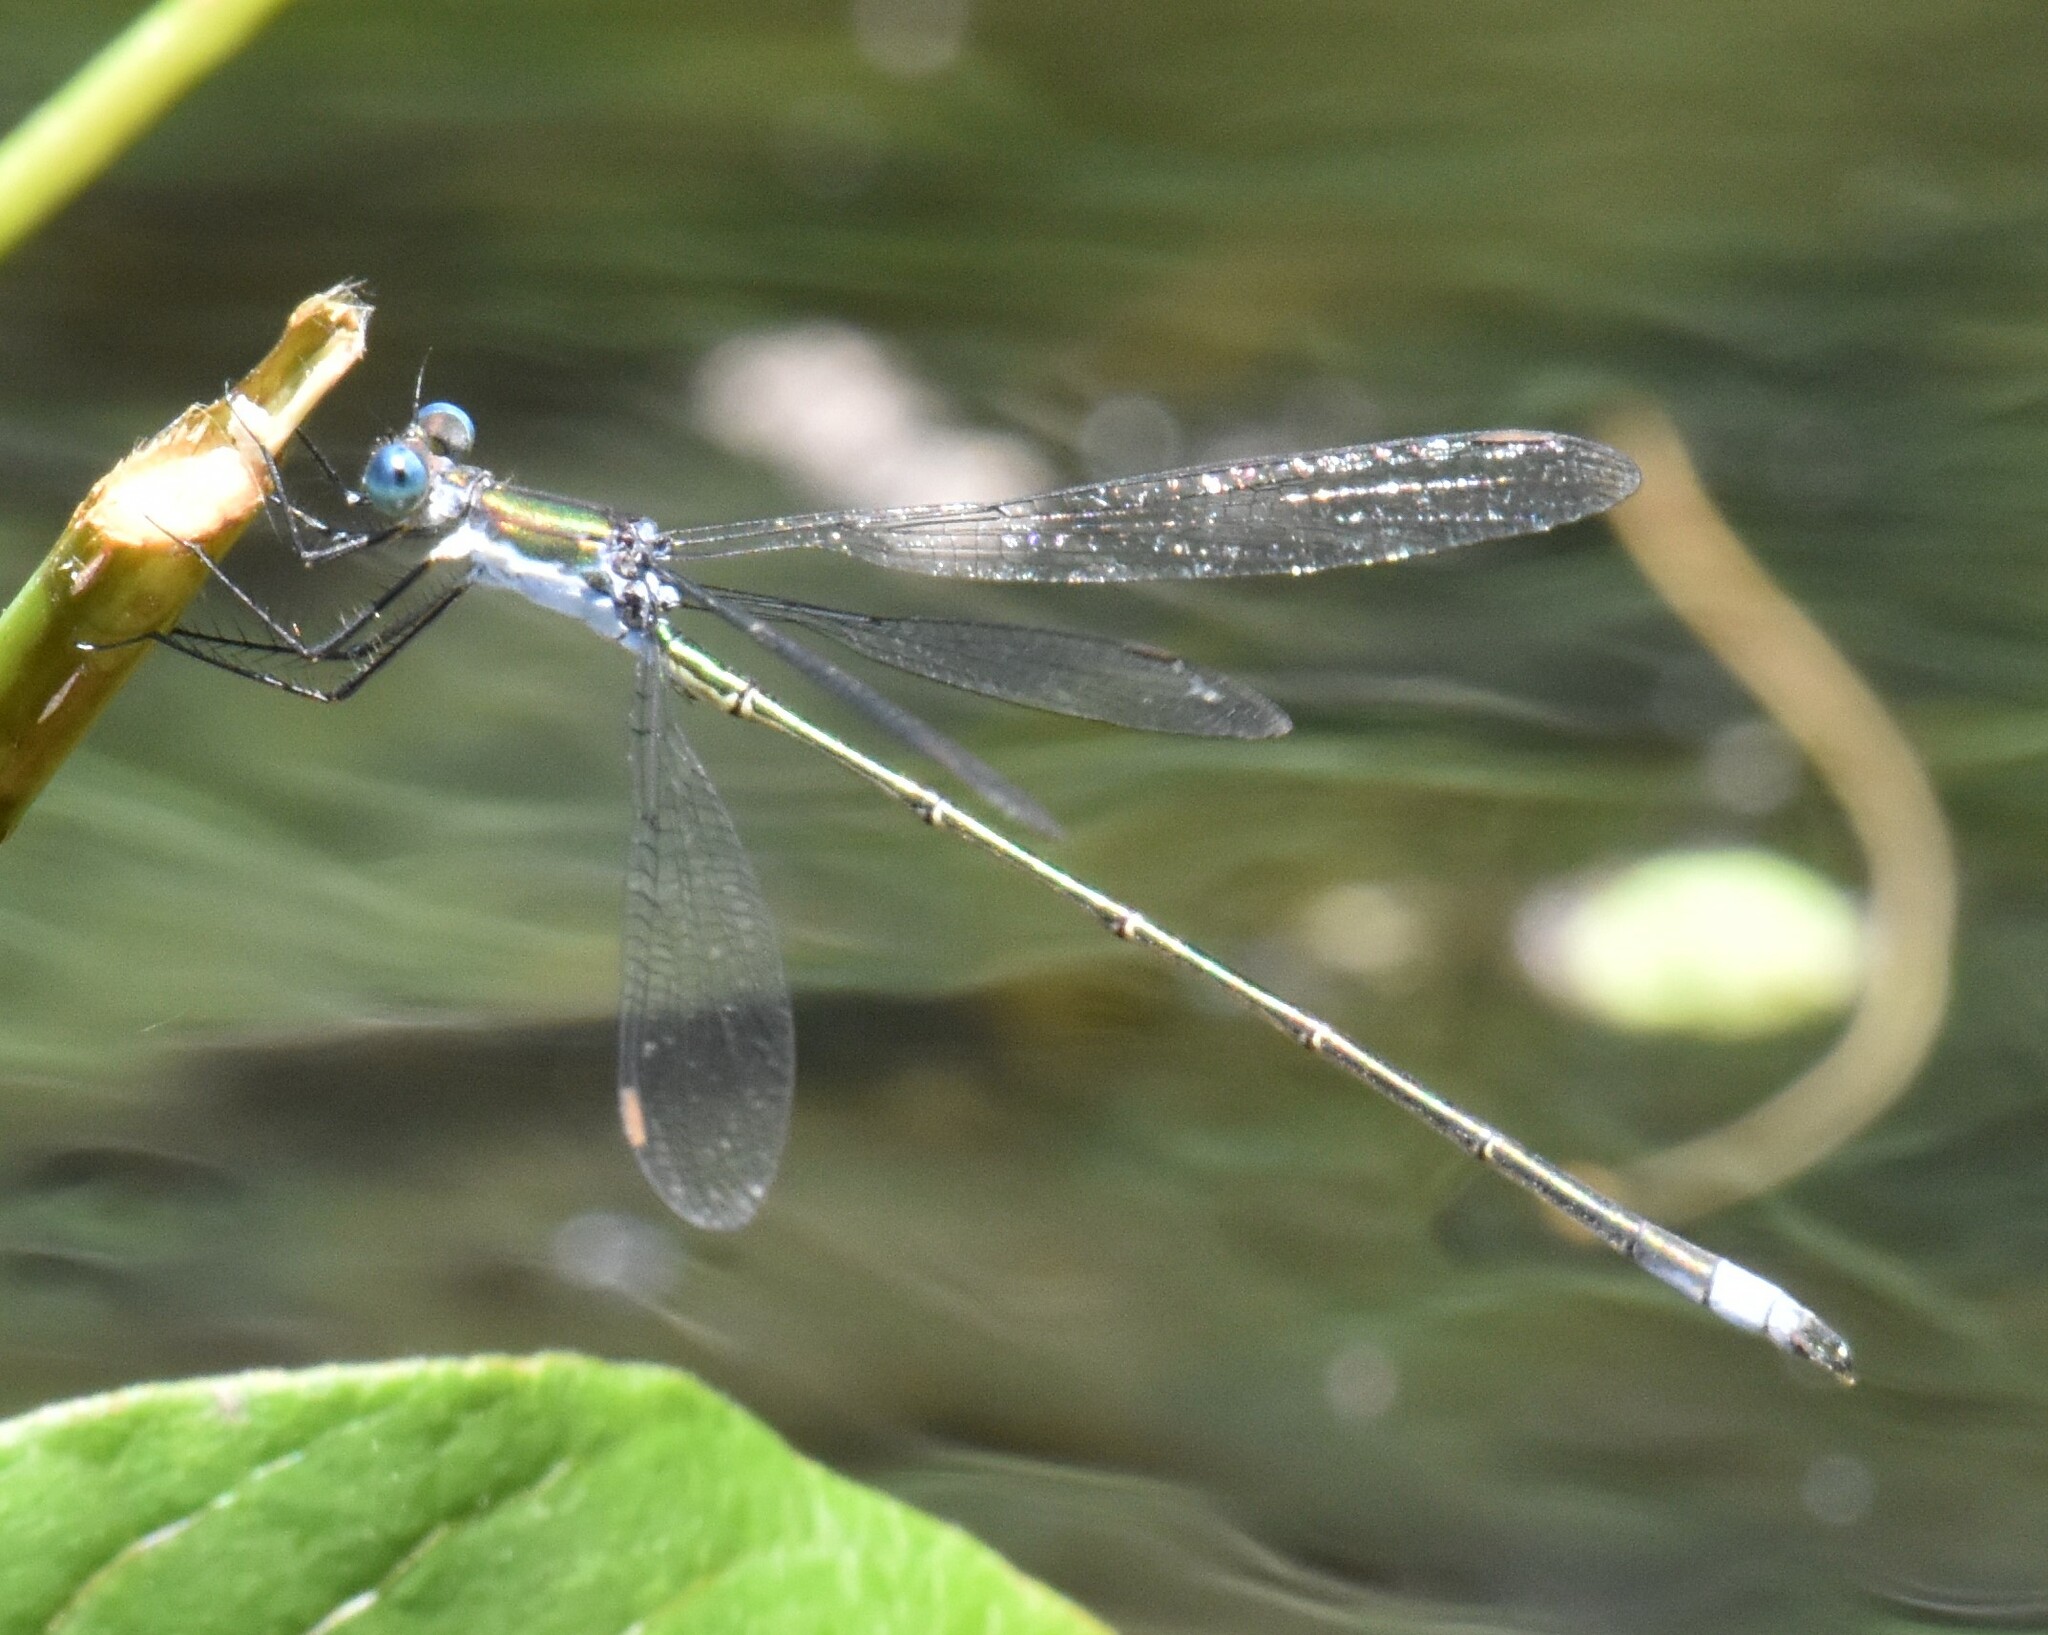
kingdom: Animalia
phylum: Arthropoda
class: Insecta
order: Odonata
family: Lestidae
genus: Lestes
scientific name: Lestes inaequalis
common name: Elegant spreadwing
